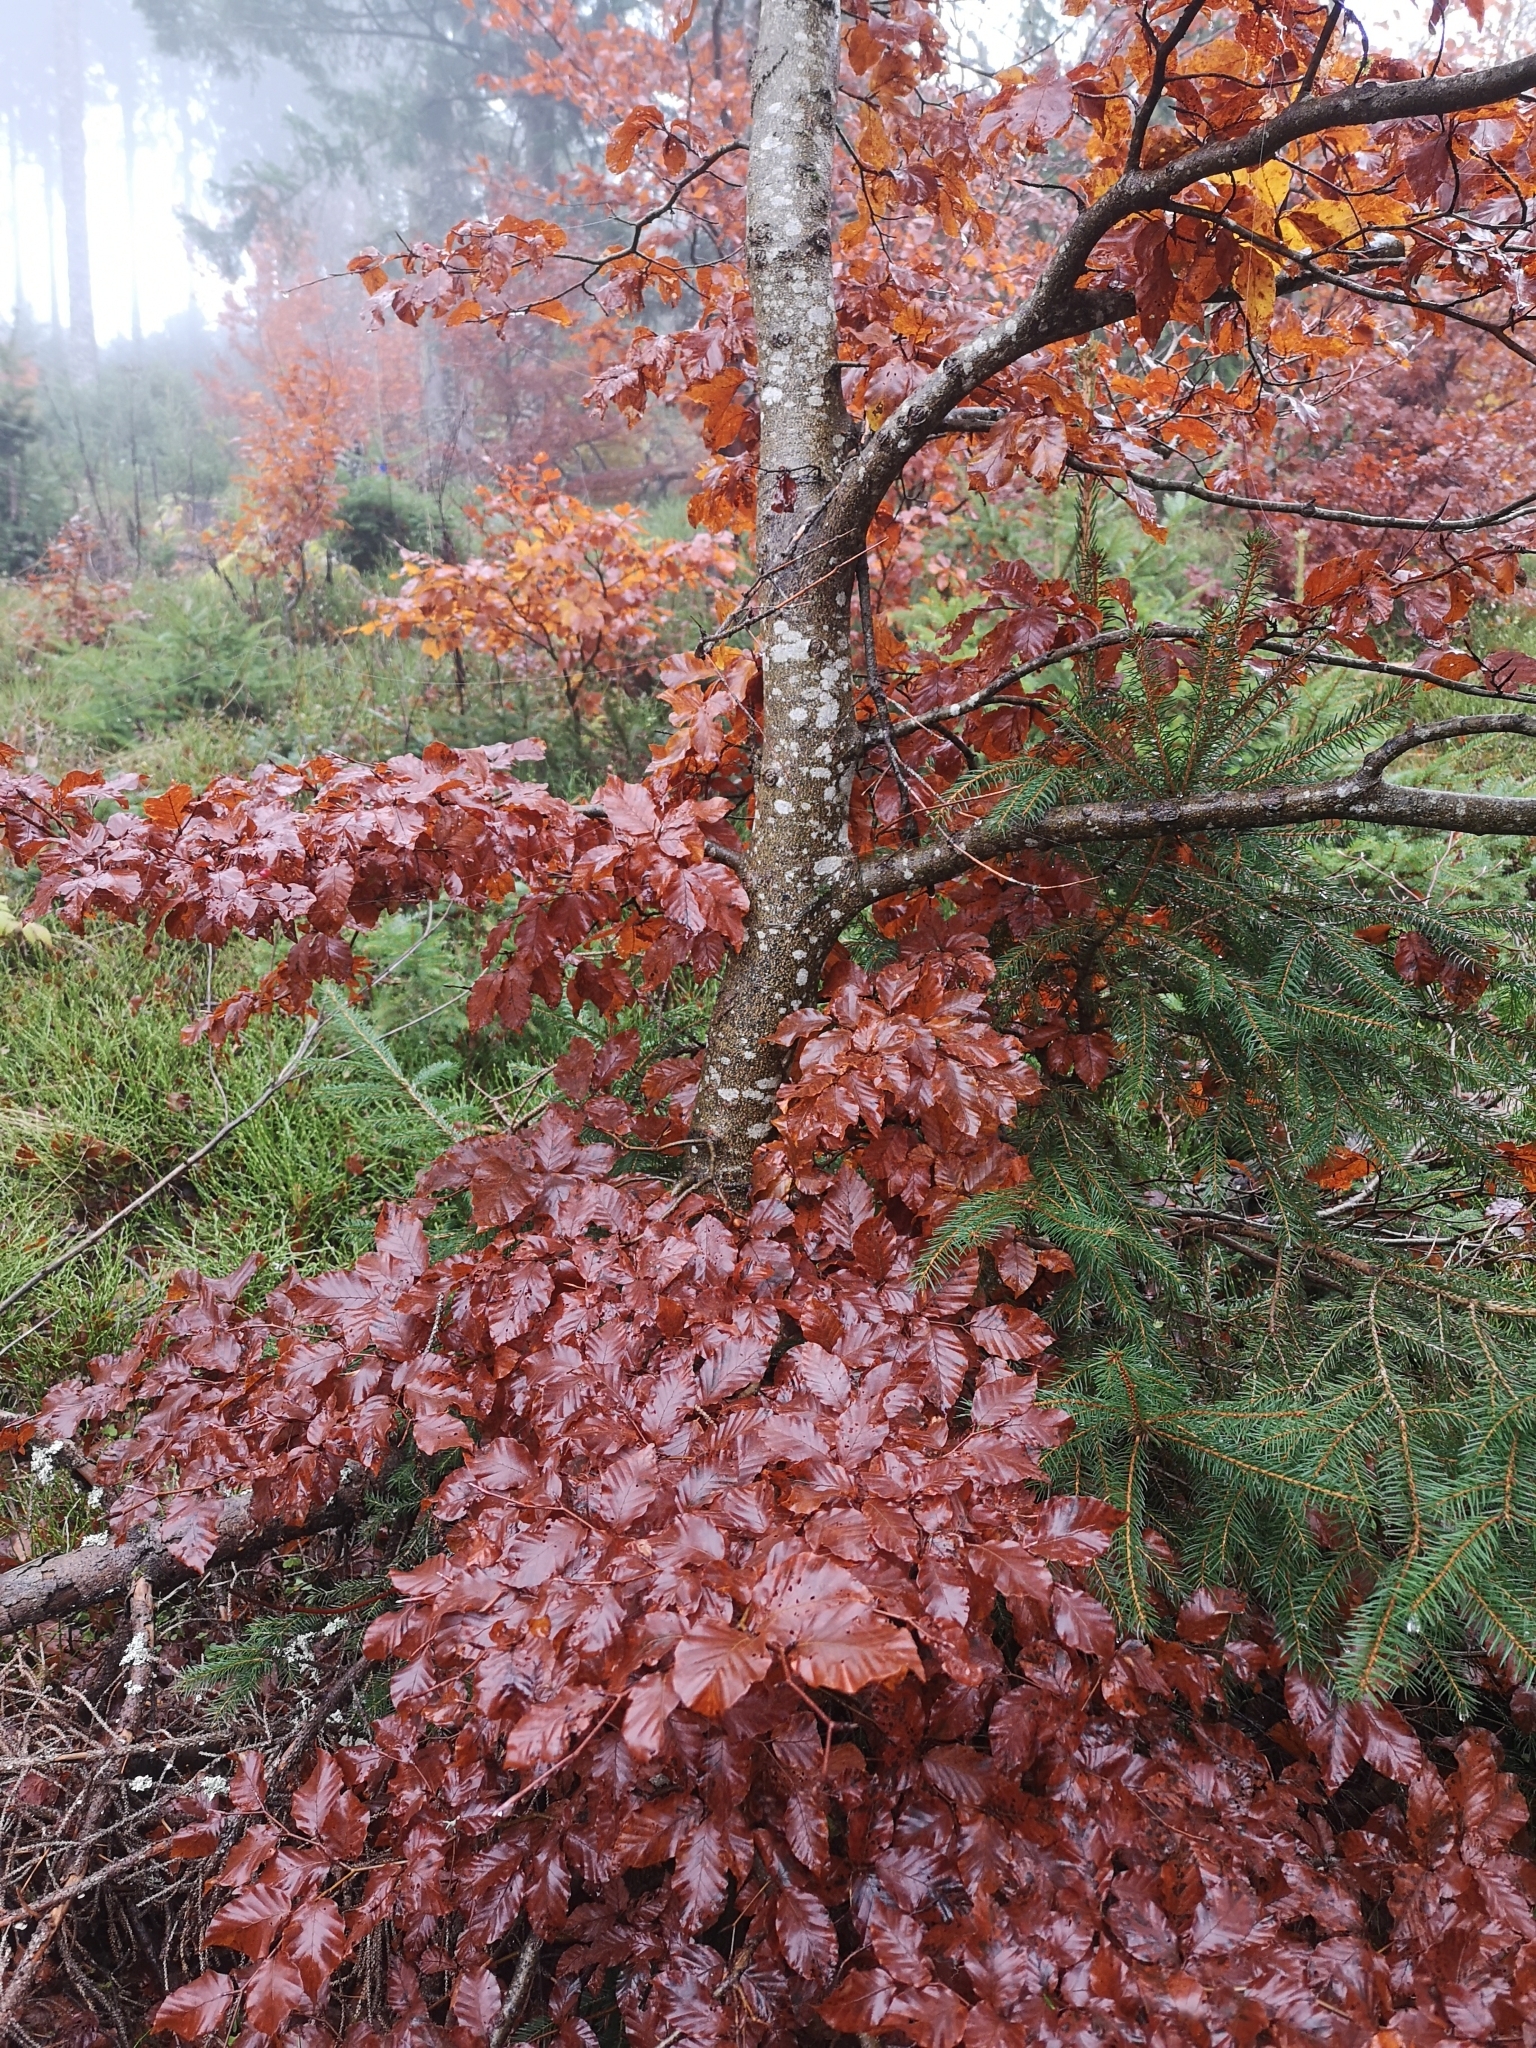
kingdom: Plantae
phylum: Tracheophyta
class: Magnoliopsida
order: Fagales
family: Fagaceae
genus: Fagus
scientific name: Fagus sylvatica
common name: Beech
